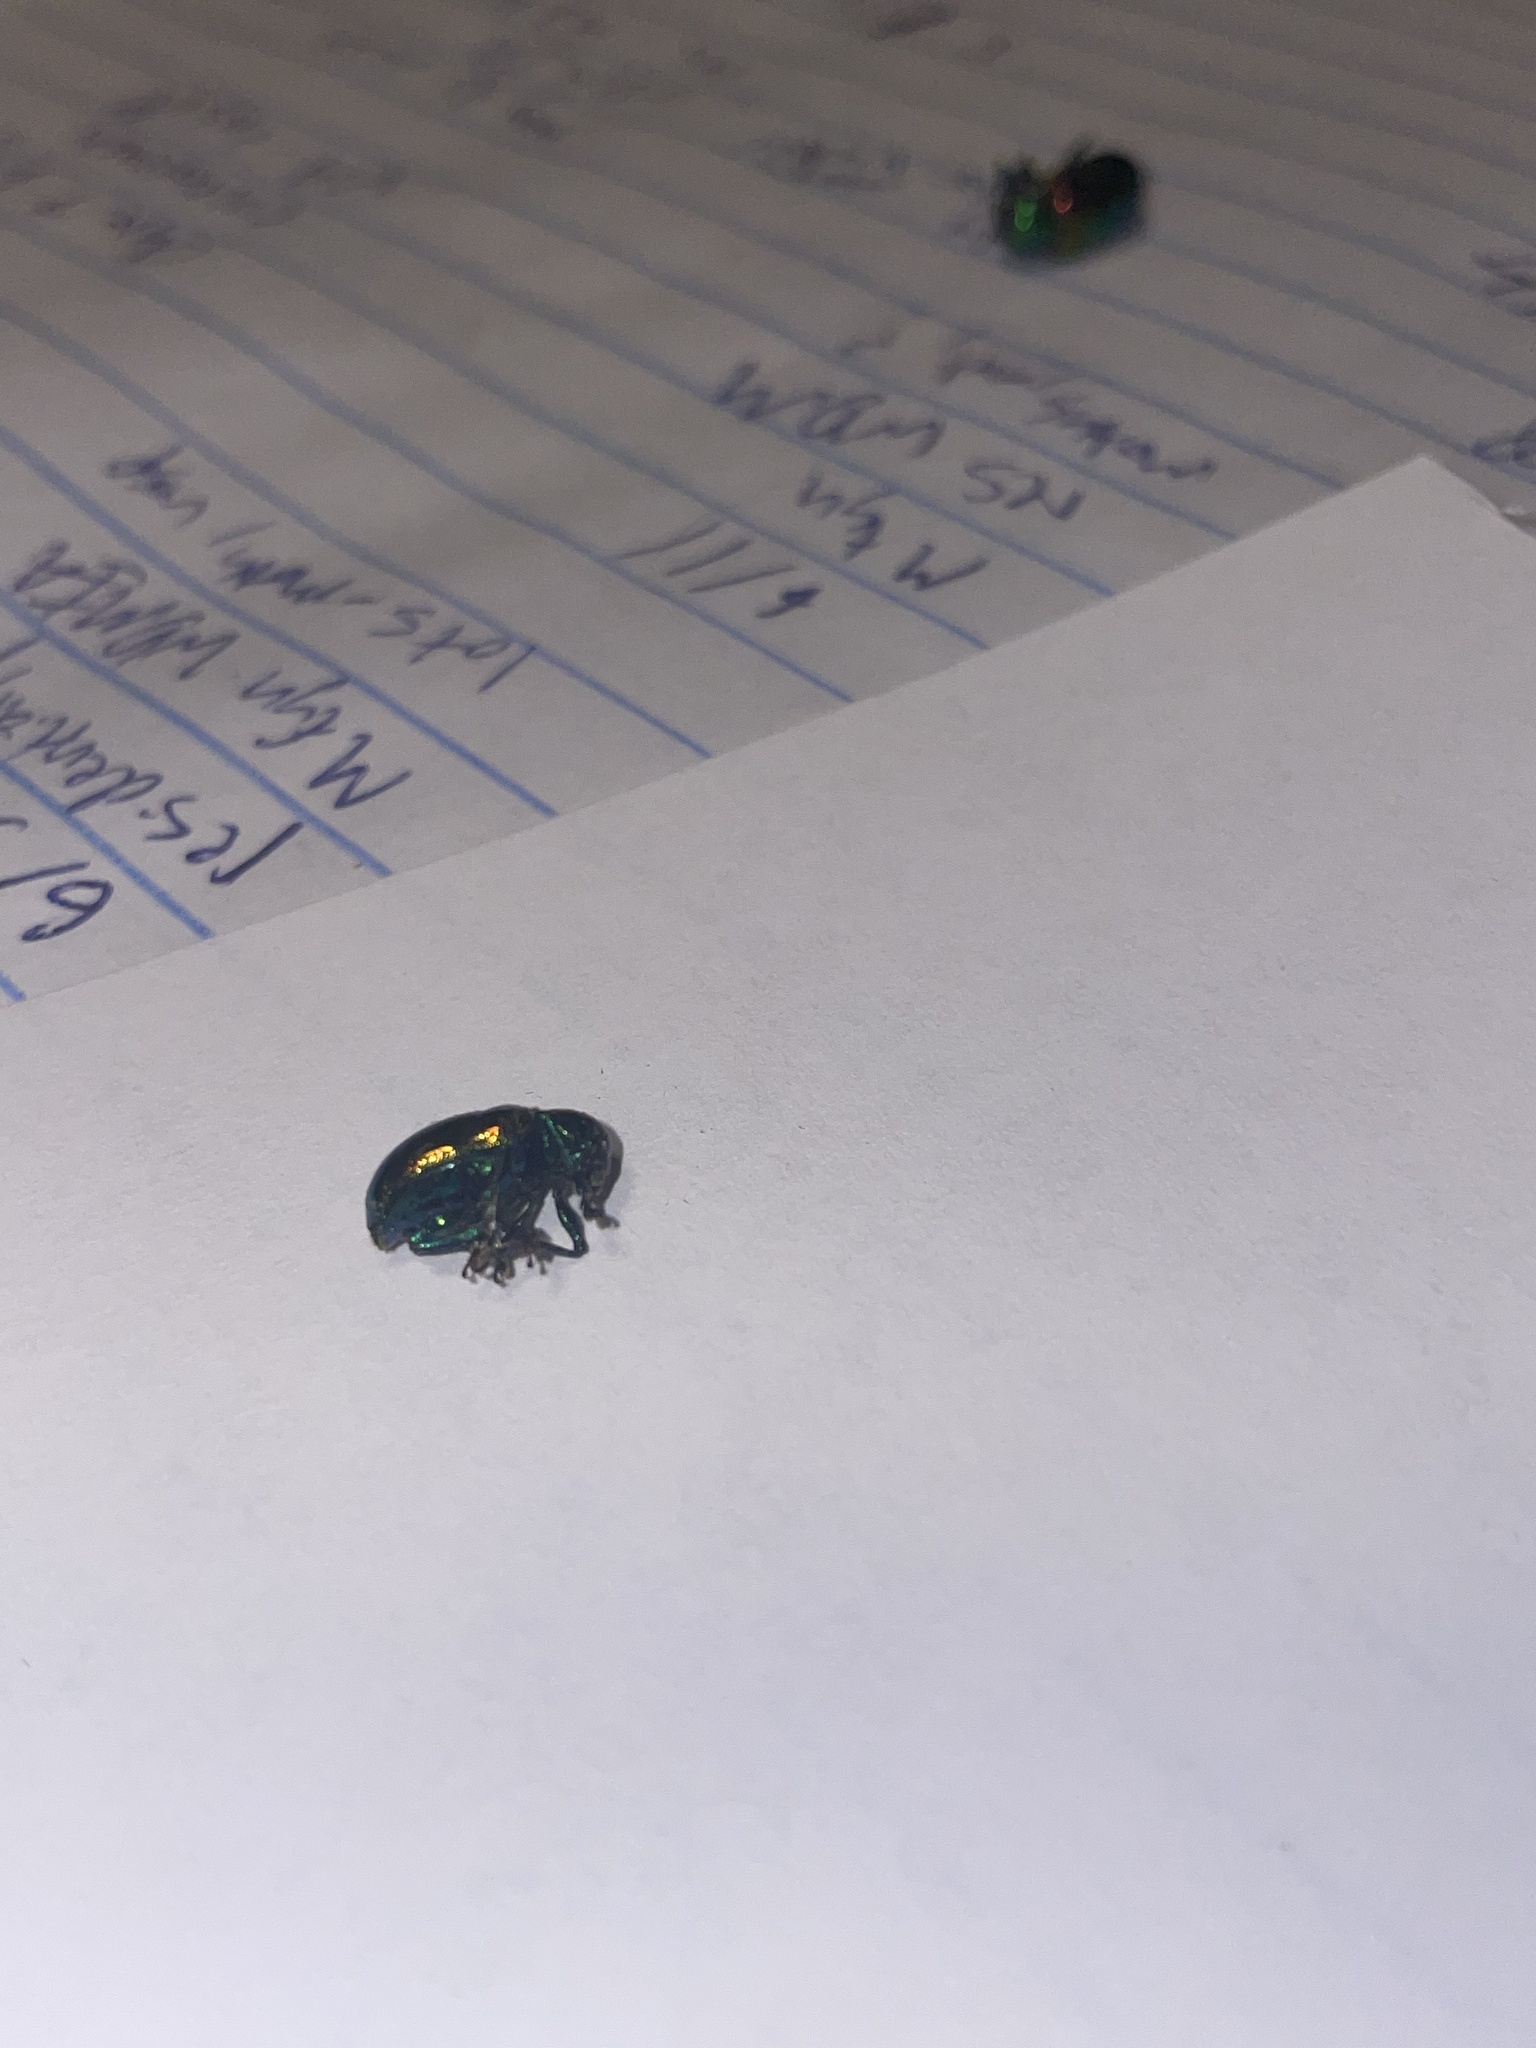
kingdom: Animalia
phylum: Arthropoda
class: Insecta
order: Coleoptera
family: Chrysomelidae
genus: Chrysochus
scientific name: Chrysochus auratus
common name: Dogbane leaf beetle
